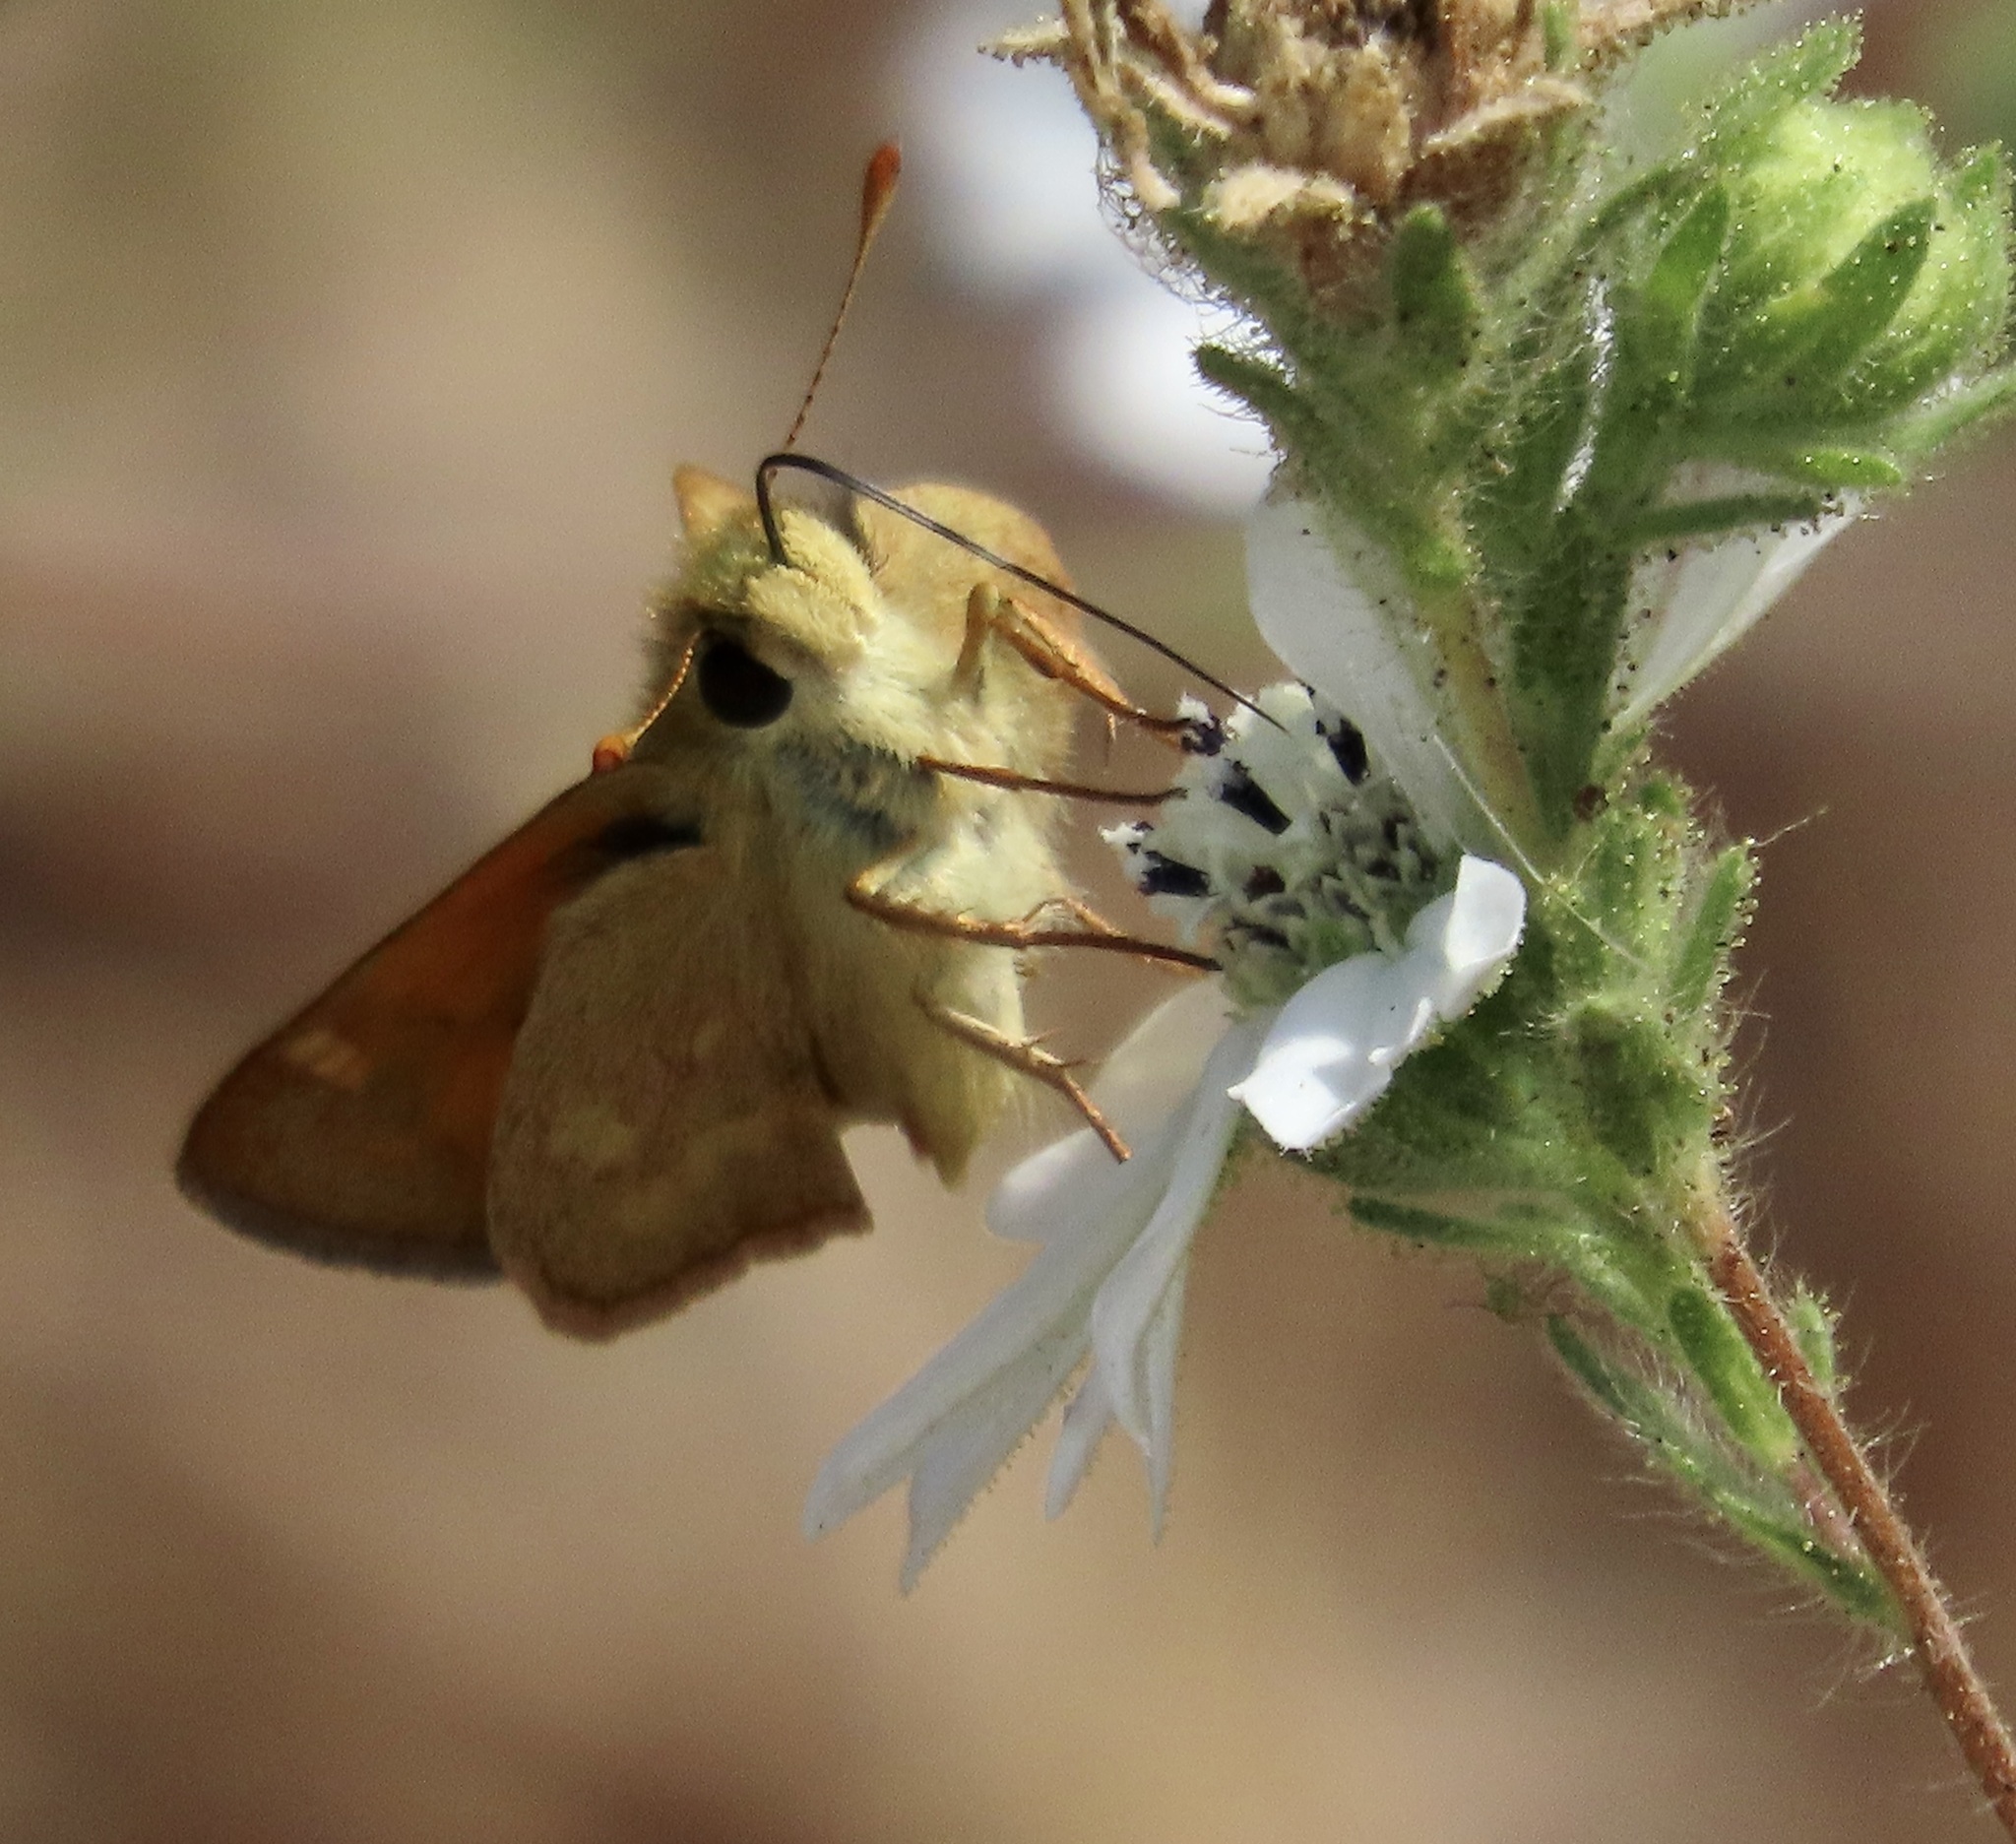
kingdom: Animalia
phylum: Arthropoda
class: Insecta
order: Lepidoptera
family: Hesperiidae
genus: Ochlodes
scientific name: Ochlodes sylvanoides
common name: Woodland skipper
